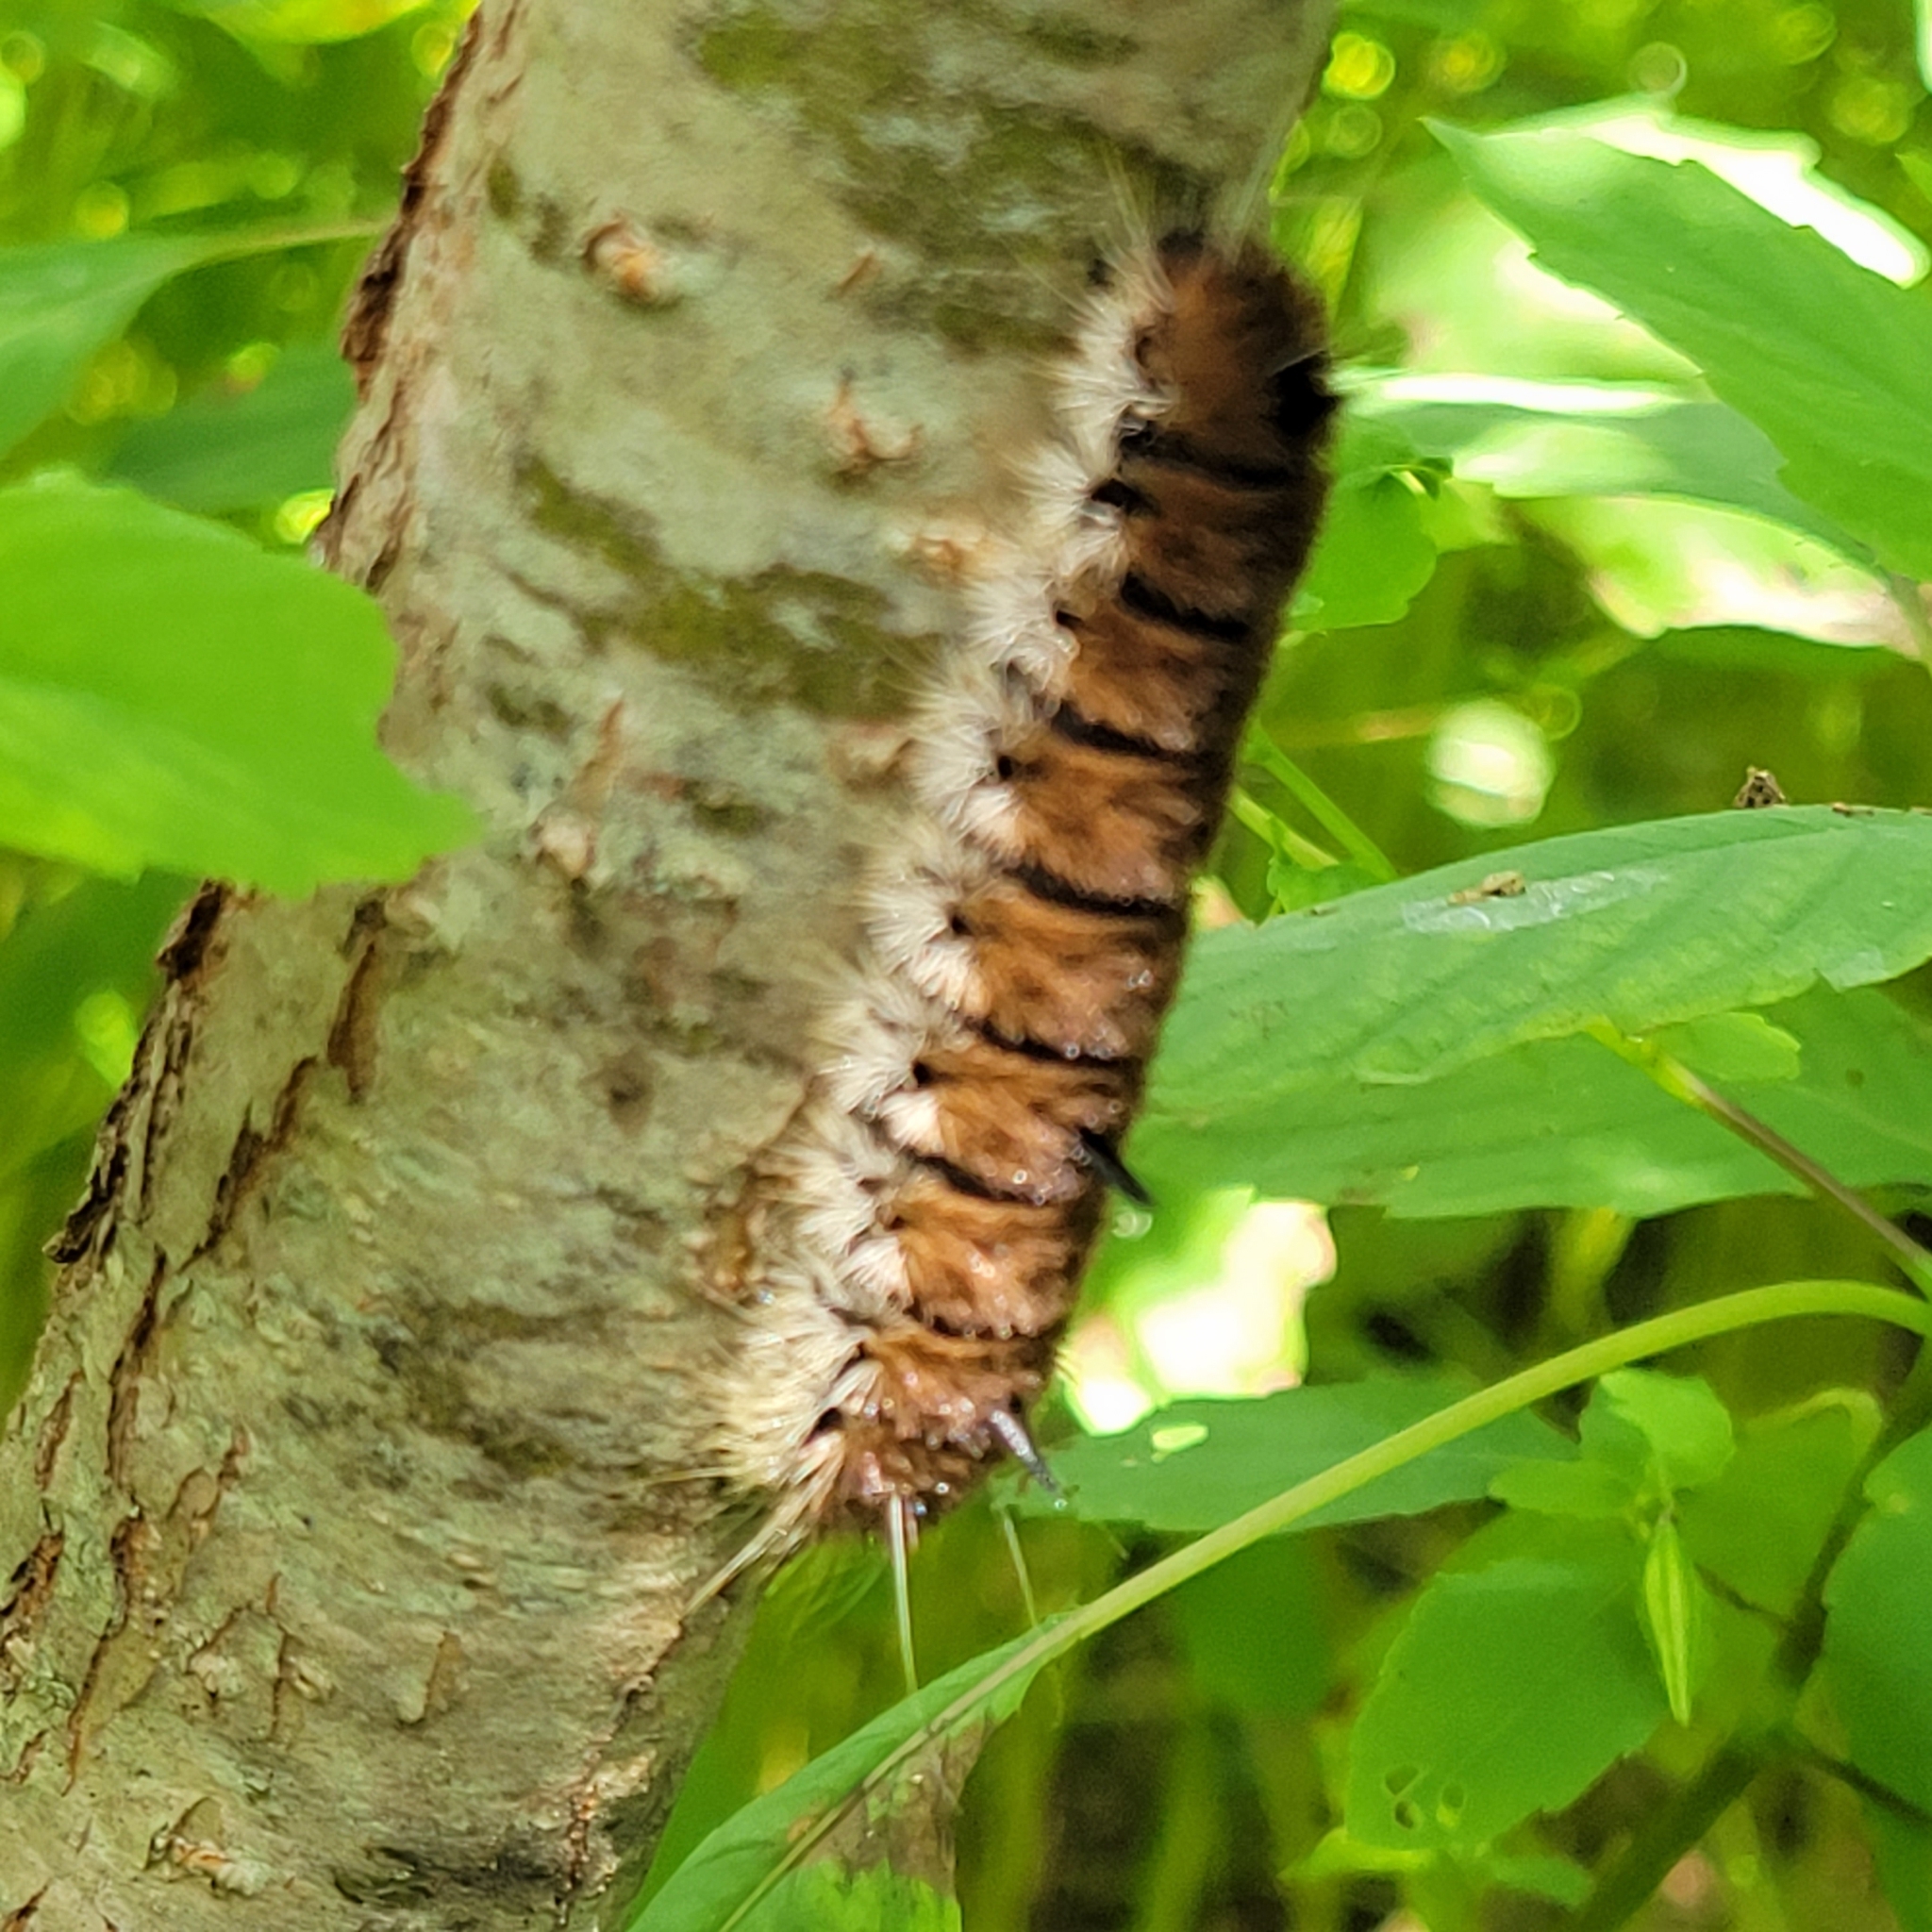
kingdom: Animalia
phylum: Arthropoda
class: Insecta
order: Lepidoptera
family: Noctuidae
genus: Acronicta
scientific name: Acronicta insita
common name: Large gray dagger
